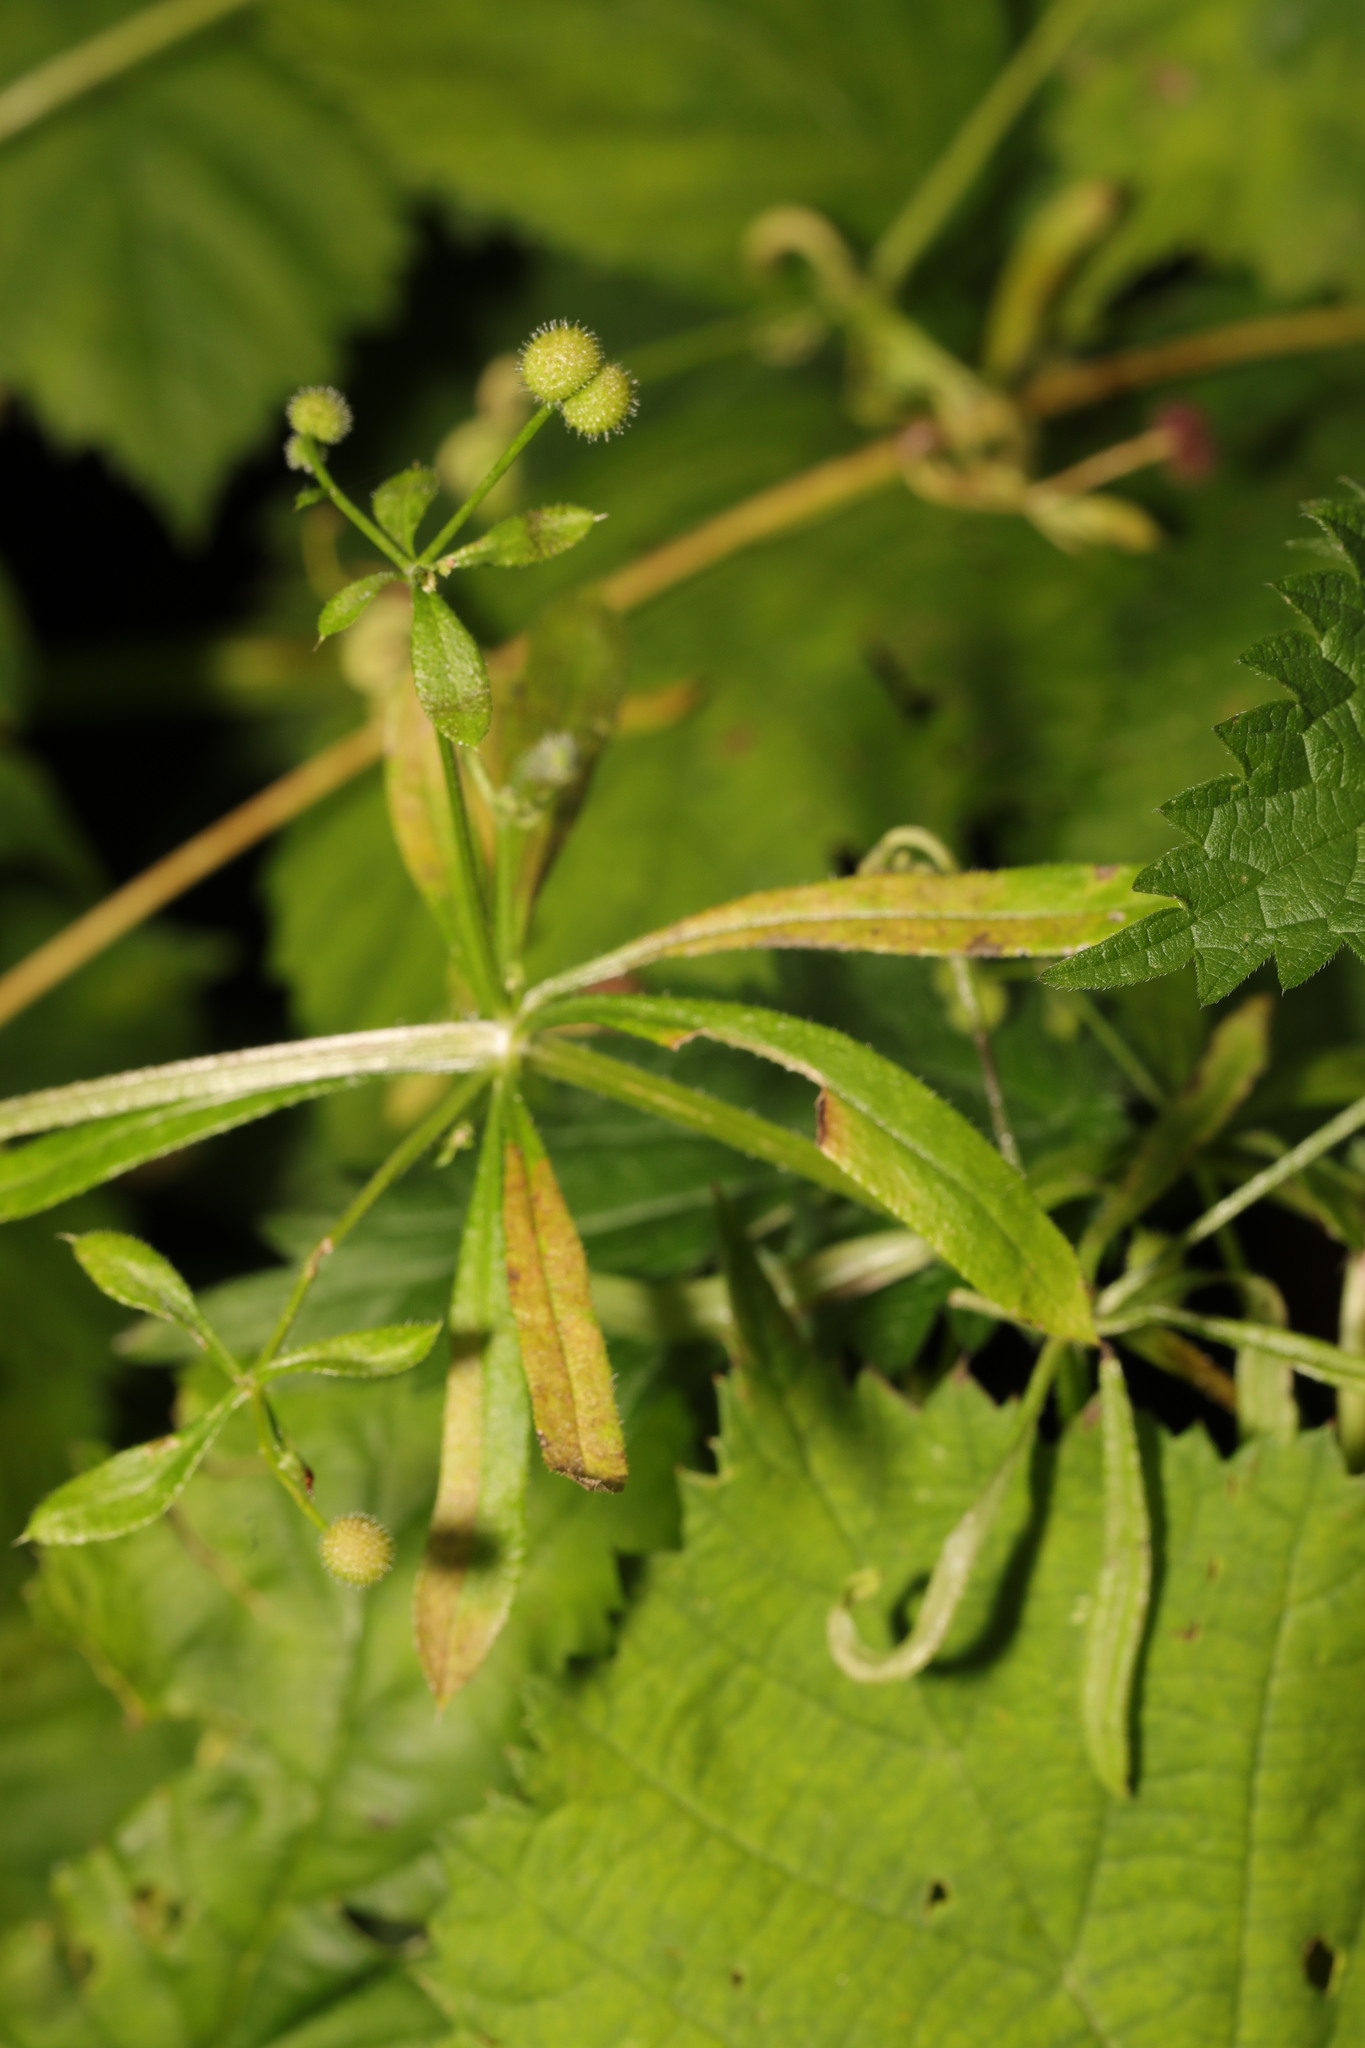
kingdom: Plantae
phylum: Tracheophyta
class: Magnoliopsida
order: Gentianales
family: Rubiaceae
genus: Galium
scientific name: Galium aparine
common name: Cleavers
